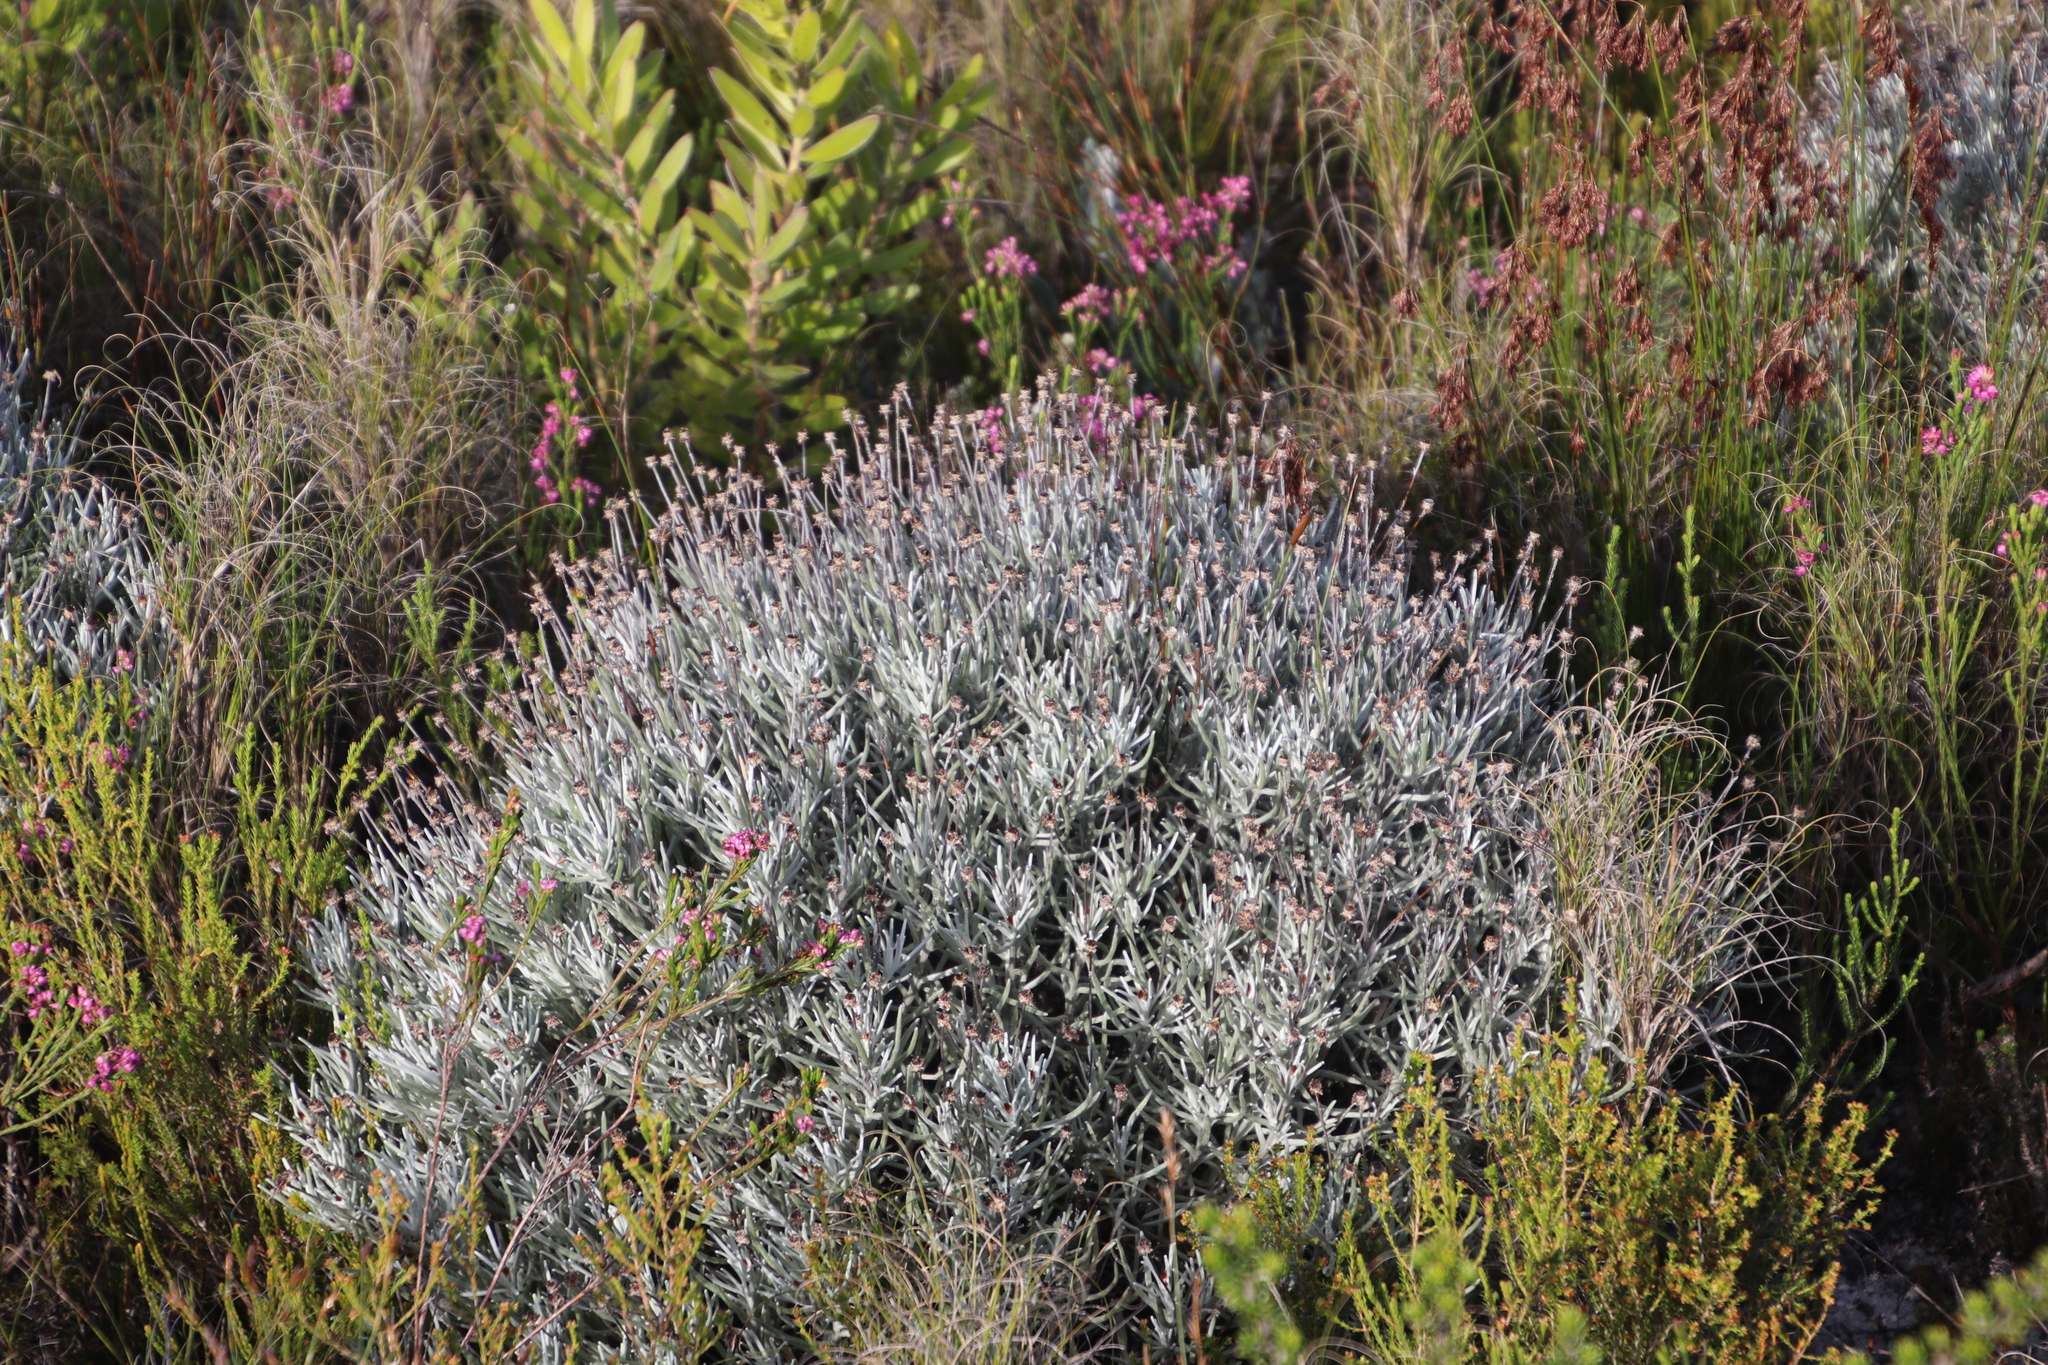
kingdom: Plantae
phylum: Tracheophyta
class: Magnoliopsida
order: Asterales
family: Asteraceae
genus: Syncarpha
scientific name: Syncarpha gnaphaloides
